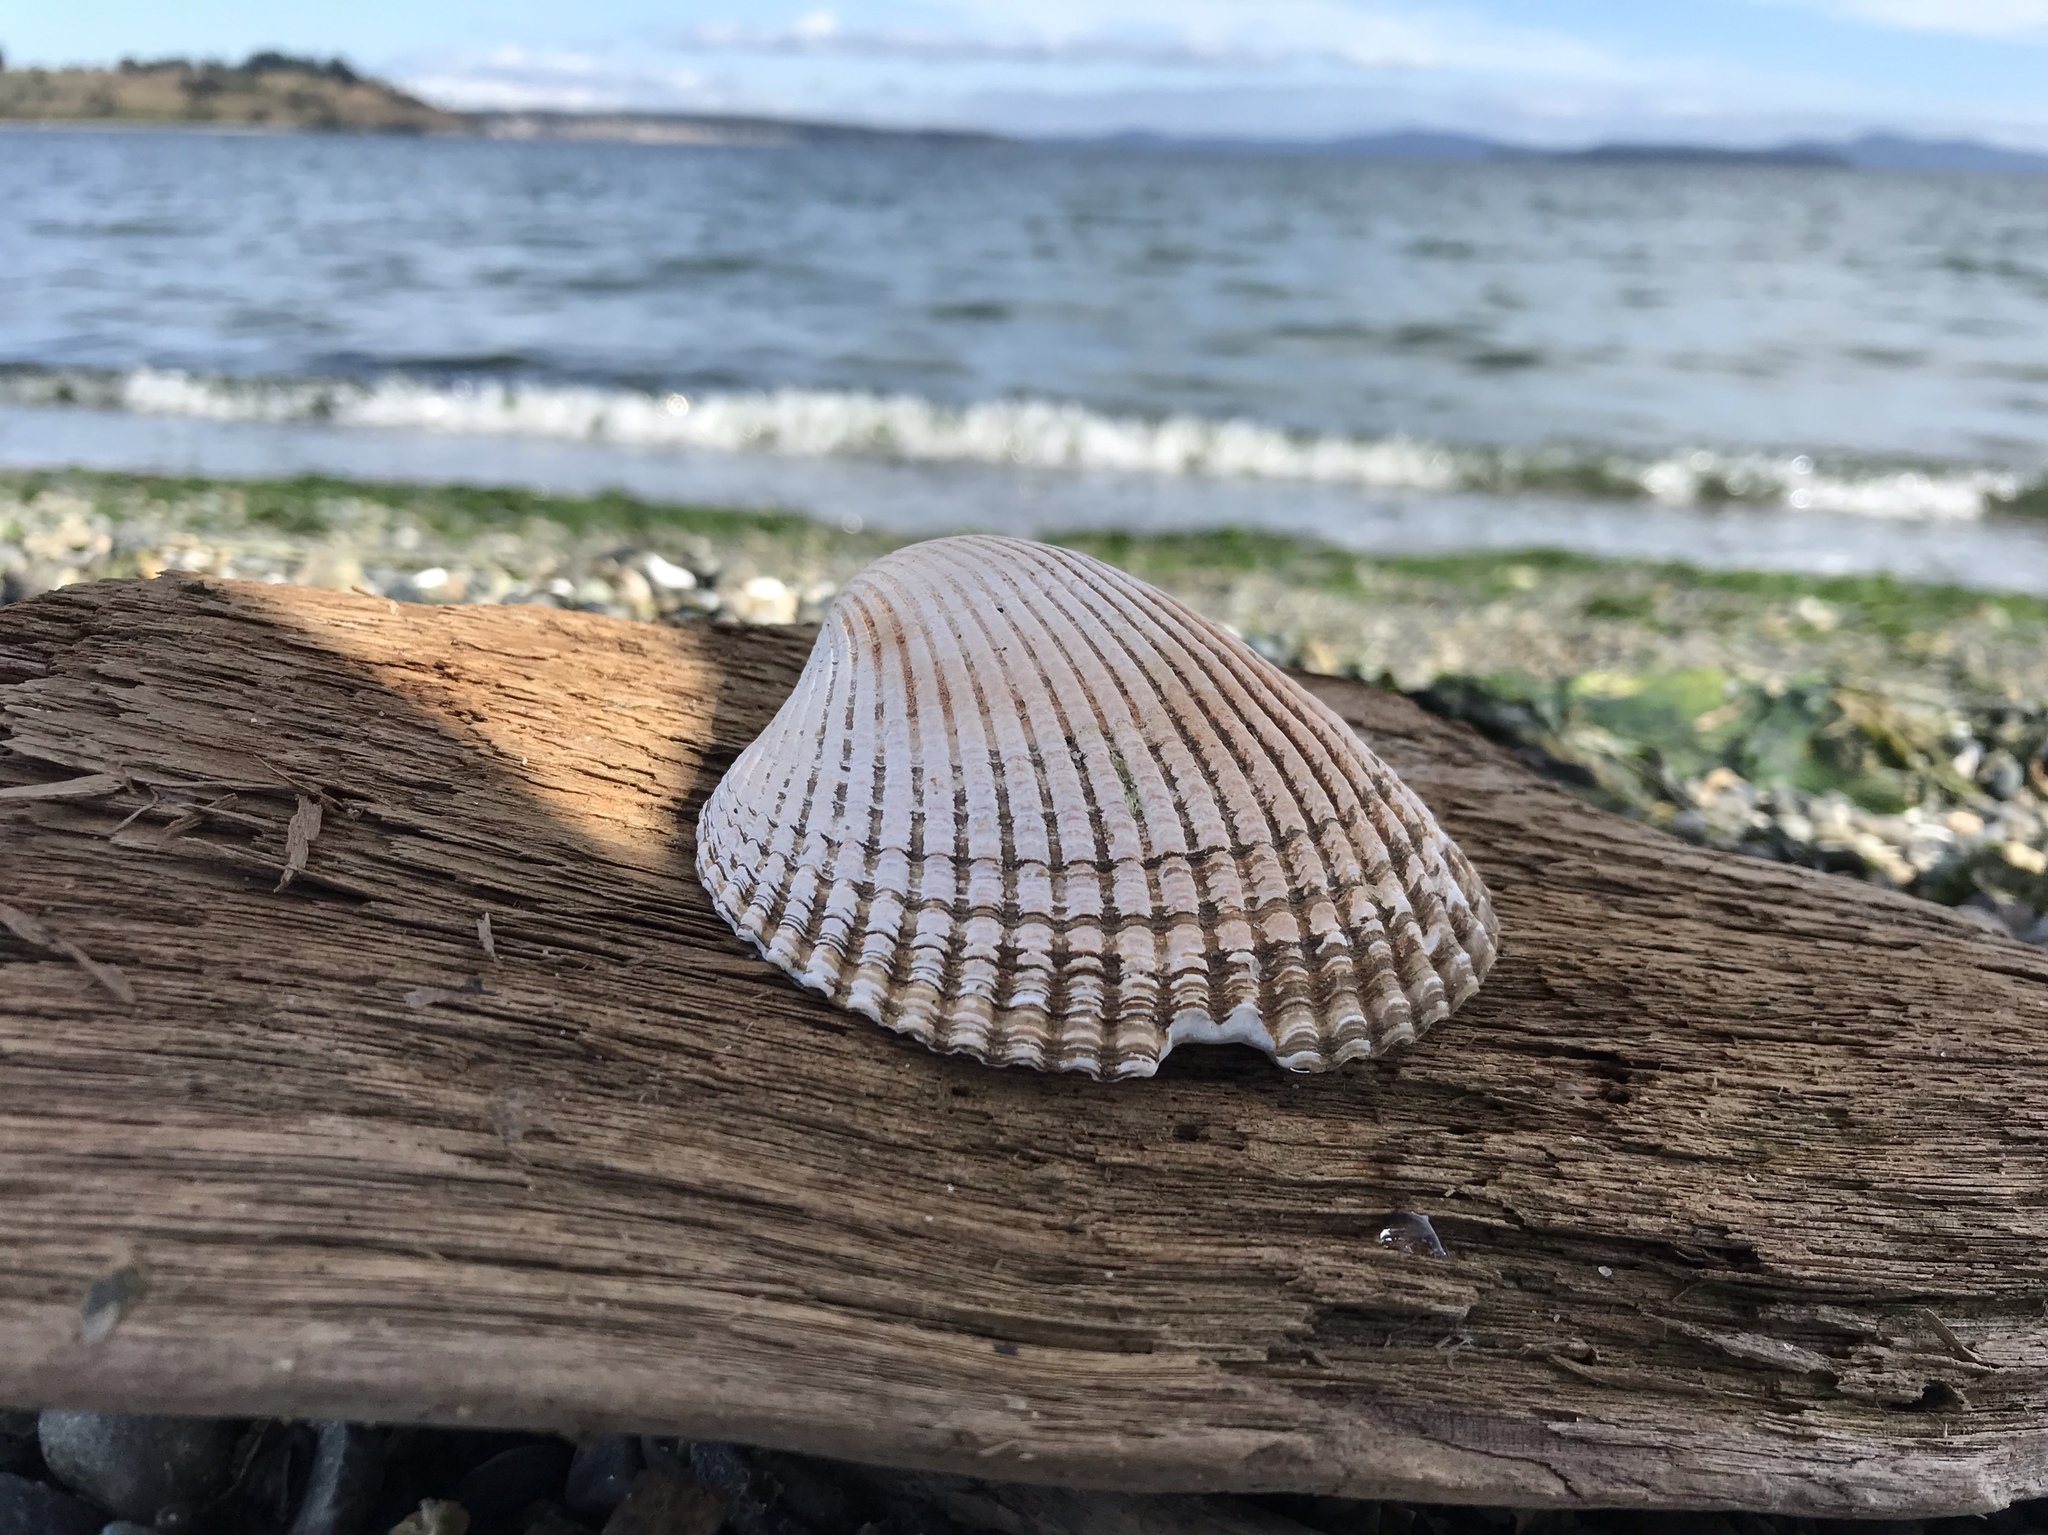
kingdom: Animalia
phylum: Mollusca
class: Bivalvia
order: Cardiida
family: Cardiidae
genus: Clinocardium
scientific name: Clinocardium nuttallii
